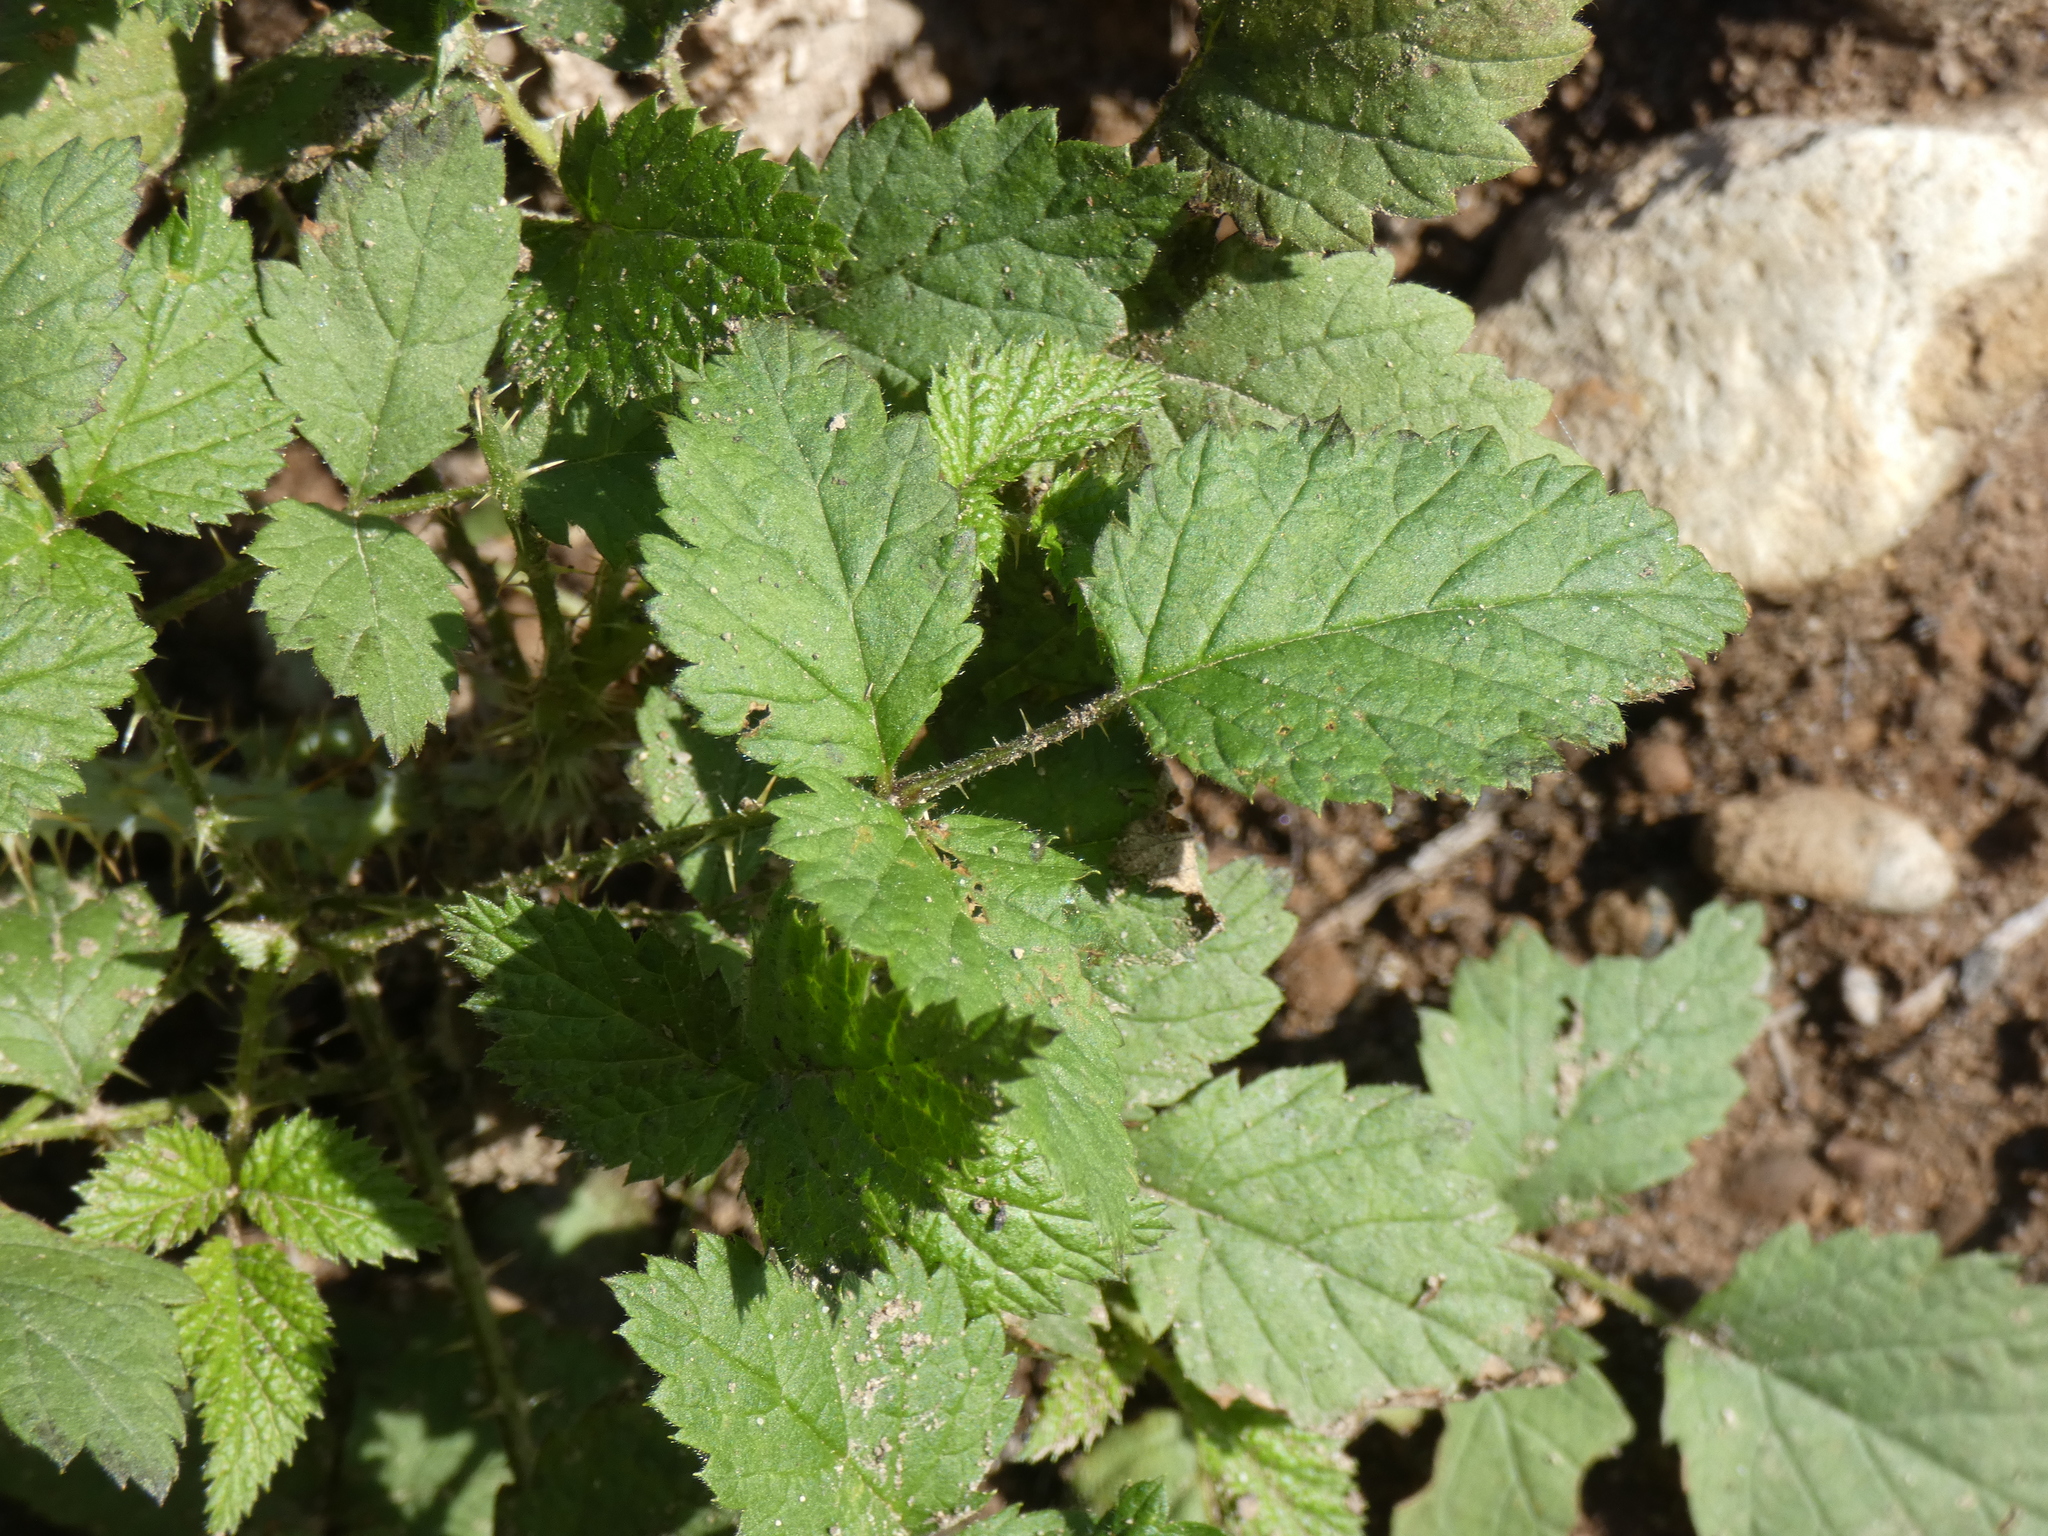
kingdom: Plantae
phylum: Tracheophyta
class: Magnoliopsida
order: Rosales
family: Rosaceae
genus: Rubus
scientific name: Rubus leucodermis
